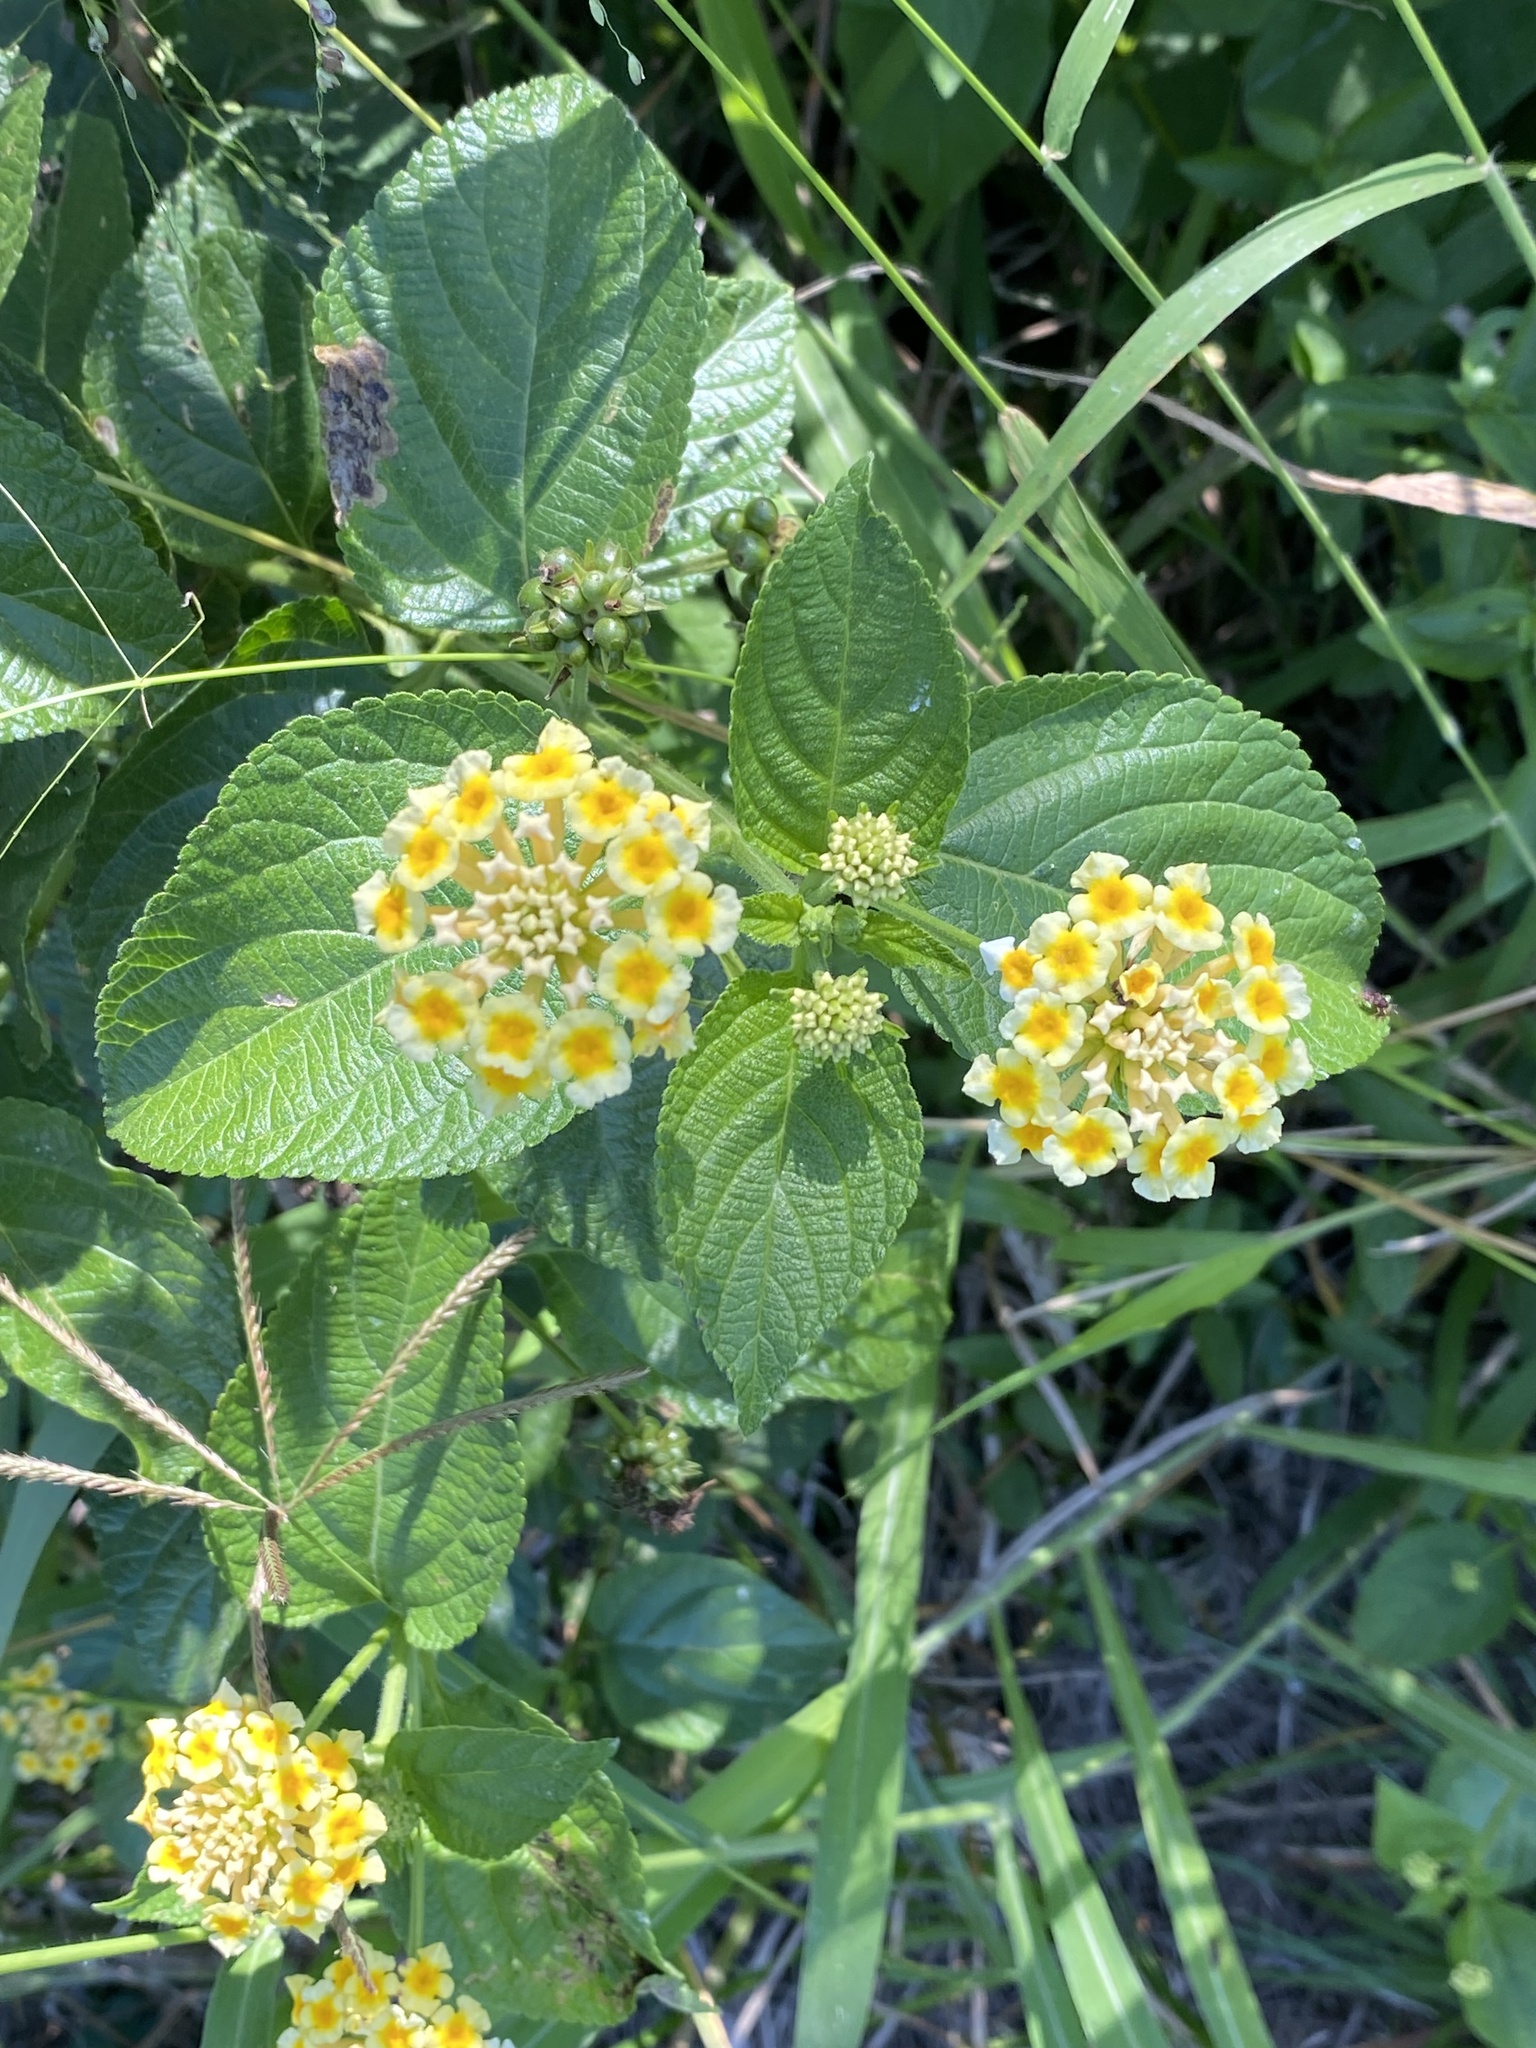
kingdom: Plantae
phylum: Tracheophyta
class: Magnoliopsida
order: Lamiales
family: Verbenaceae
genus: Lantana
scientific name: Lantana camara
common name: Lantana
